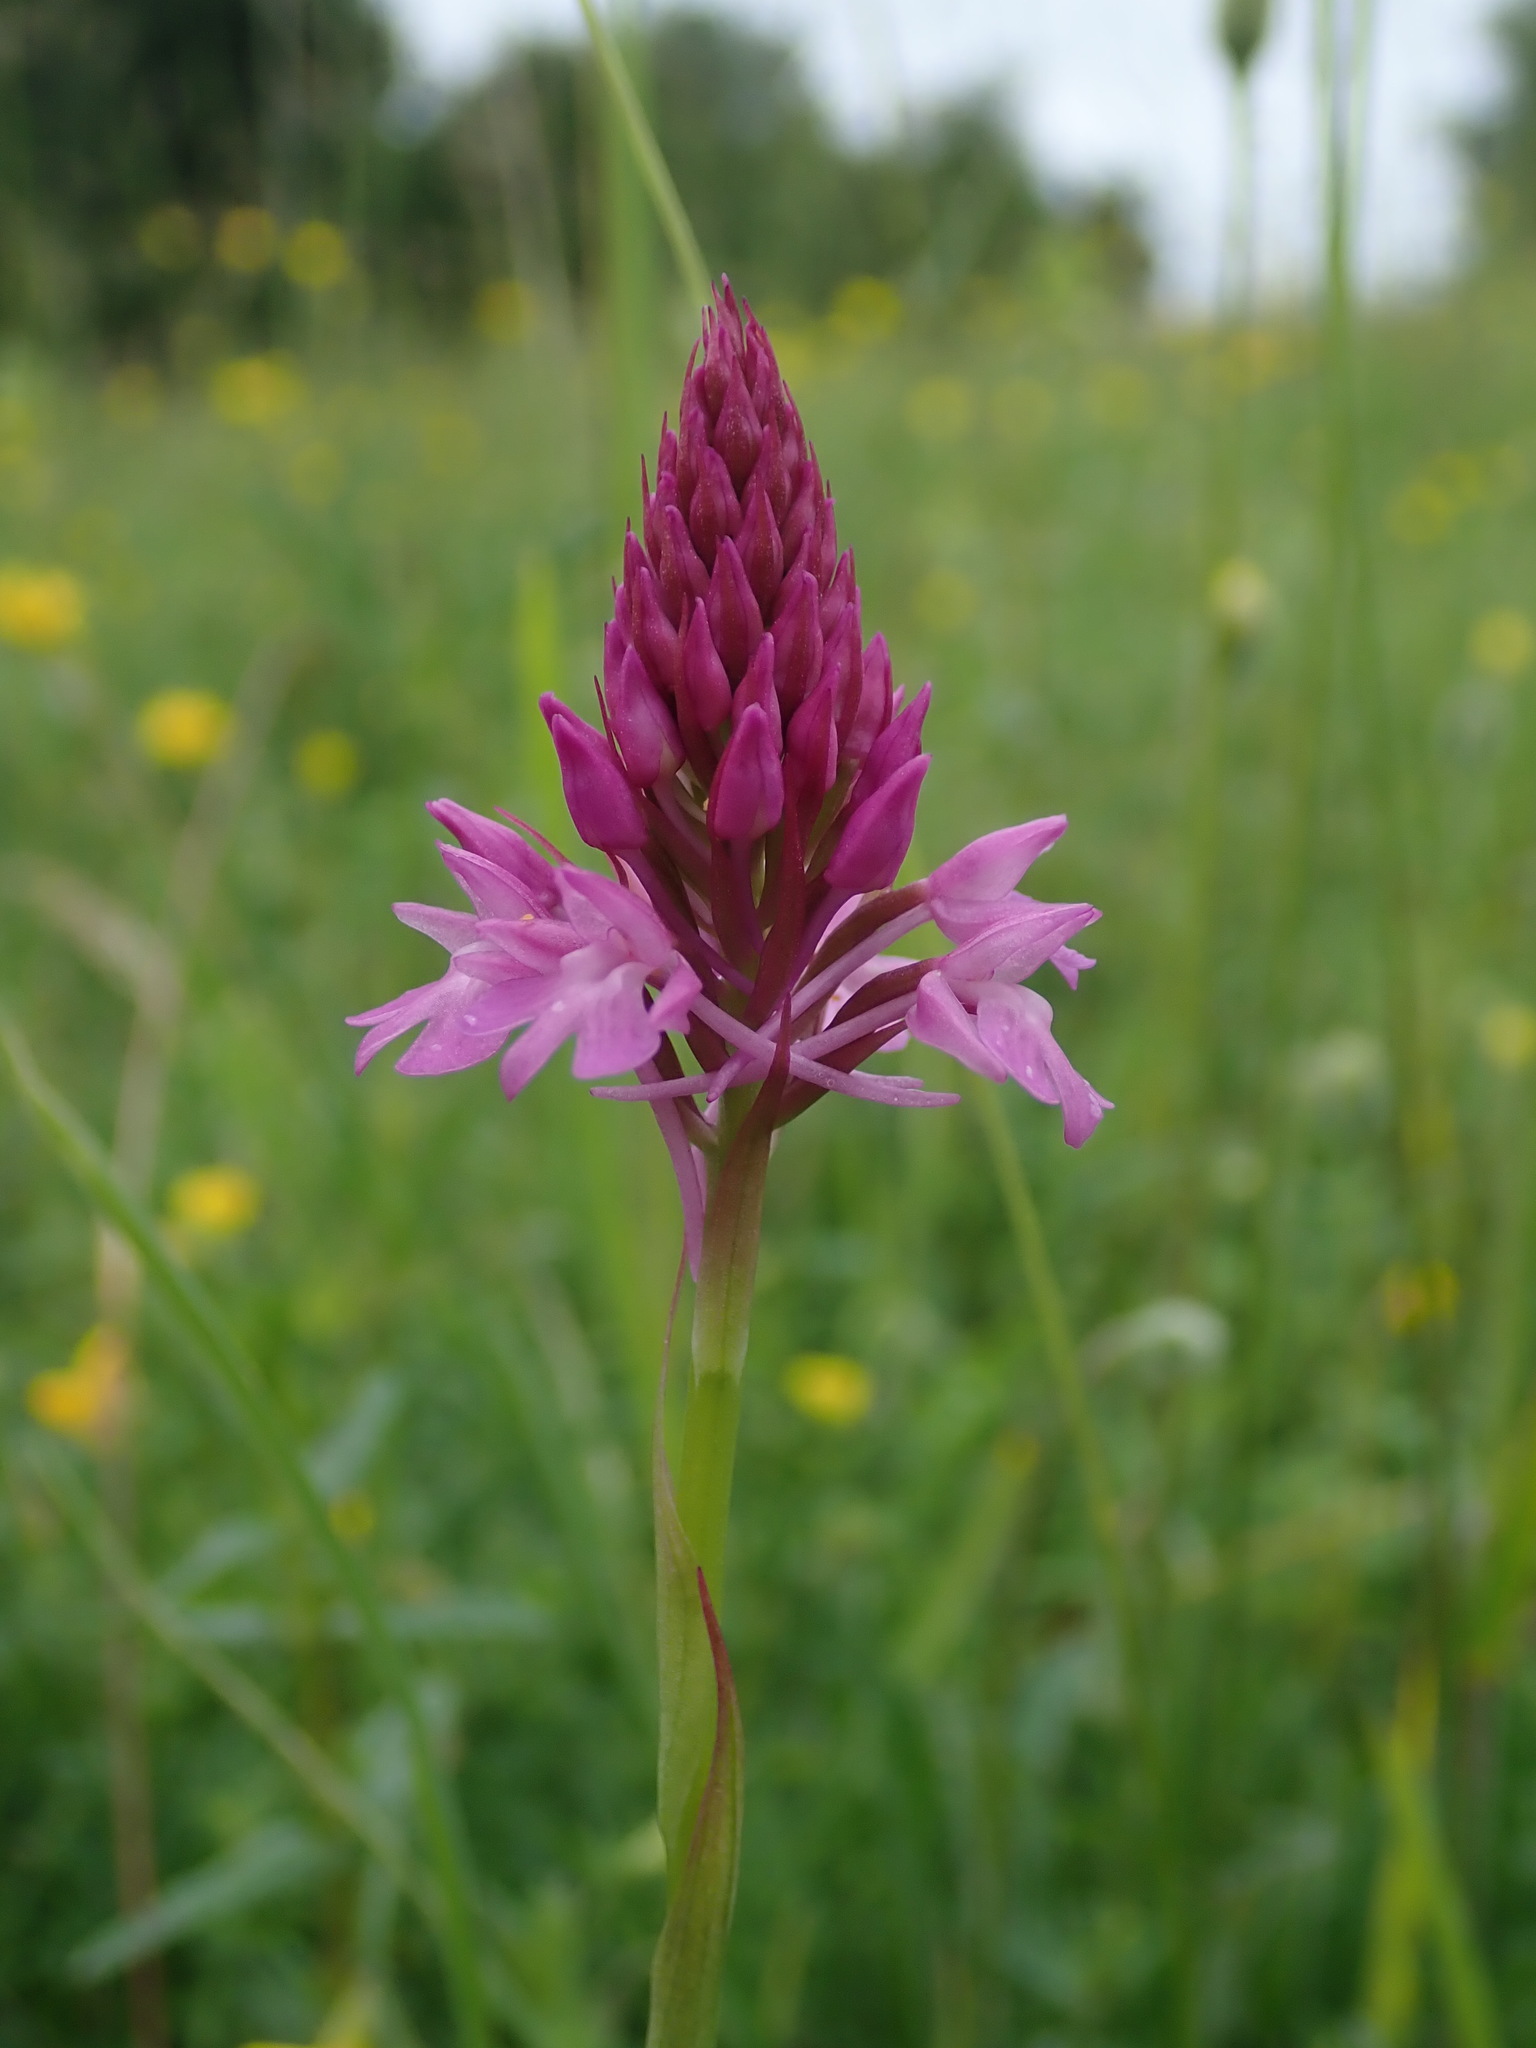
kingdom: Plantae
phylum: Tracheophyta
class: Liliopsida
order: Asparagales
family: Orchidaceae
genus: Anacamptis
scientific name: Anacamptis pyramidalis
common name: Pyramidal orchid
